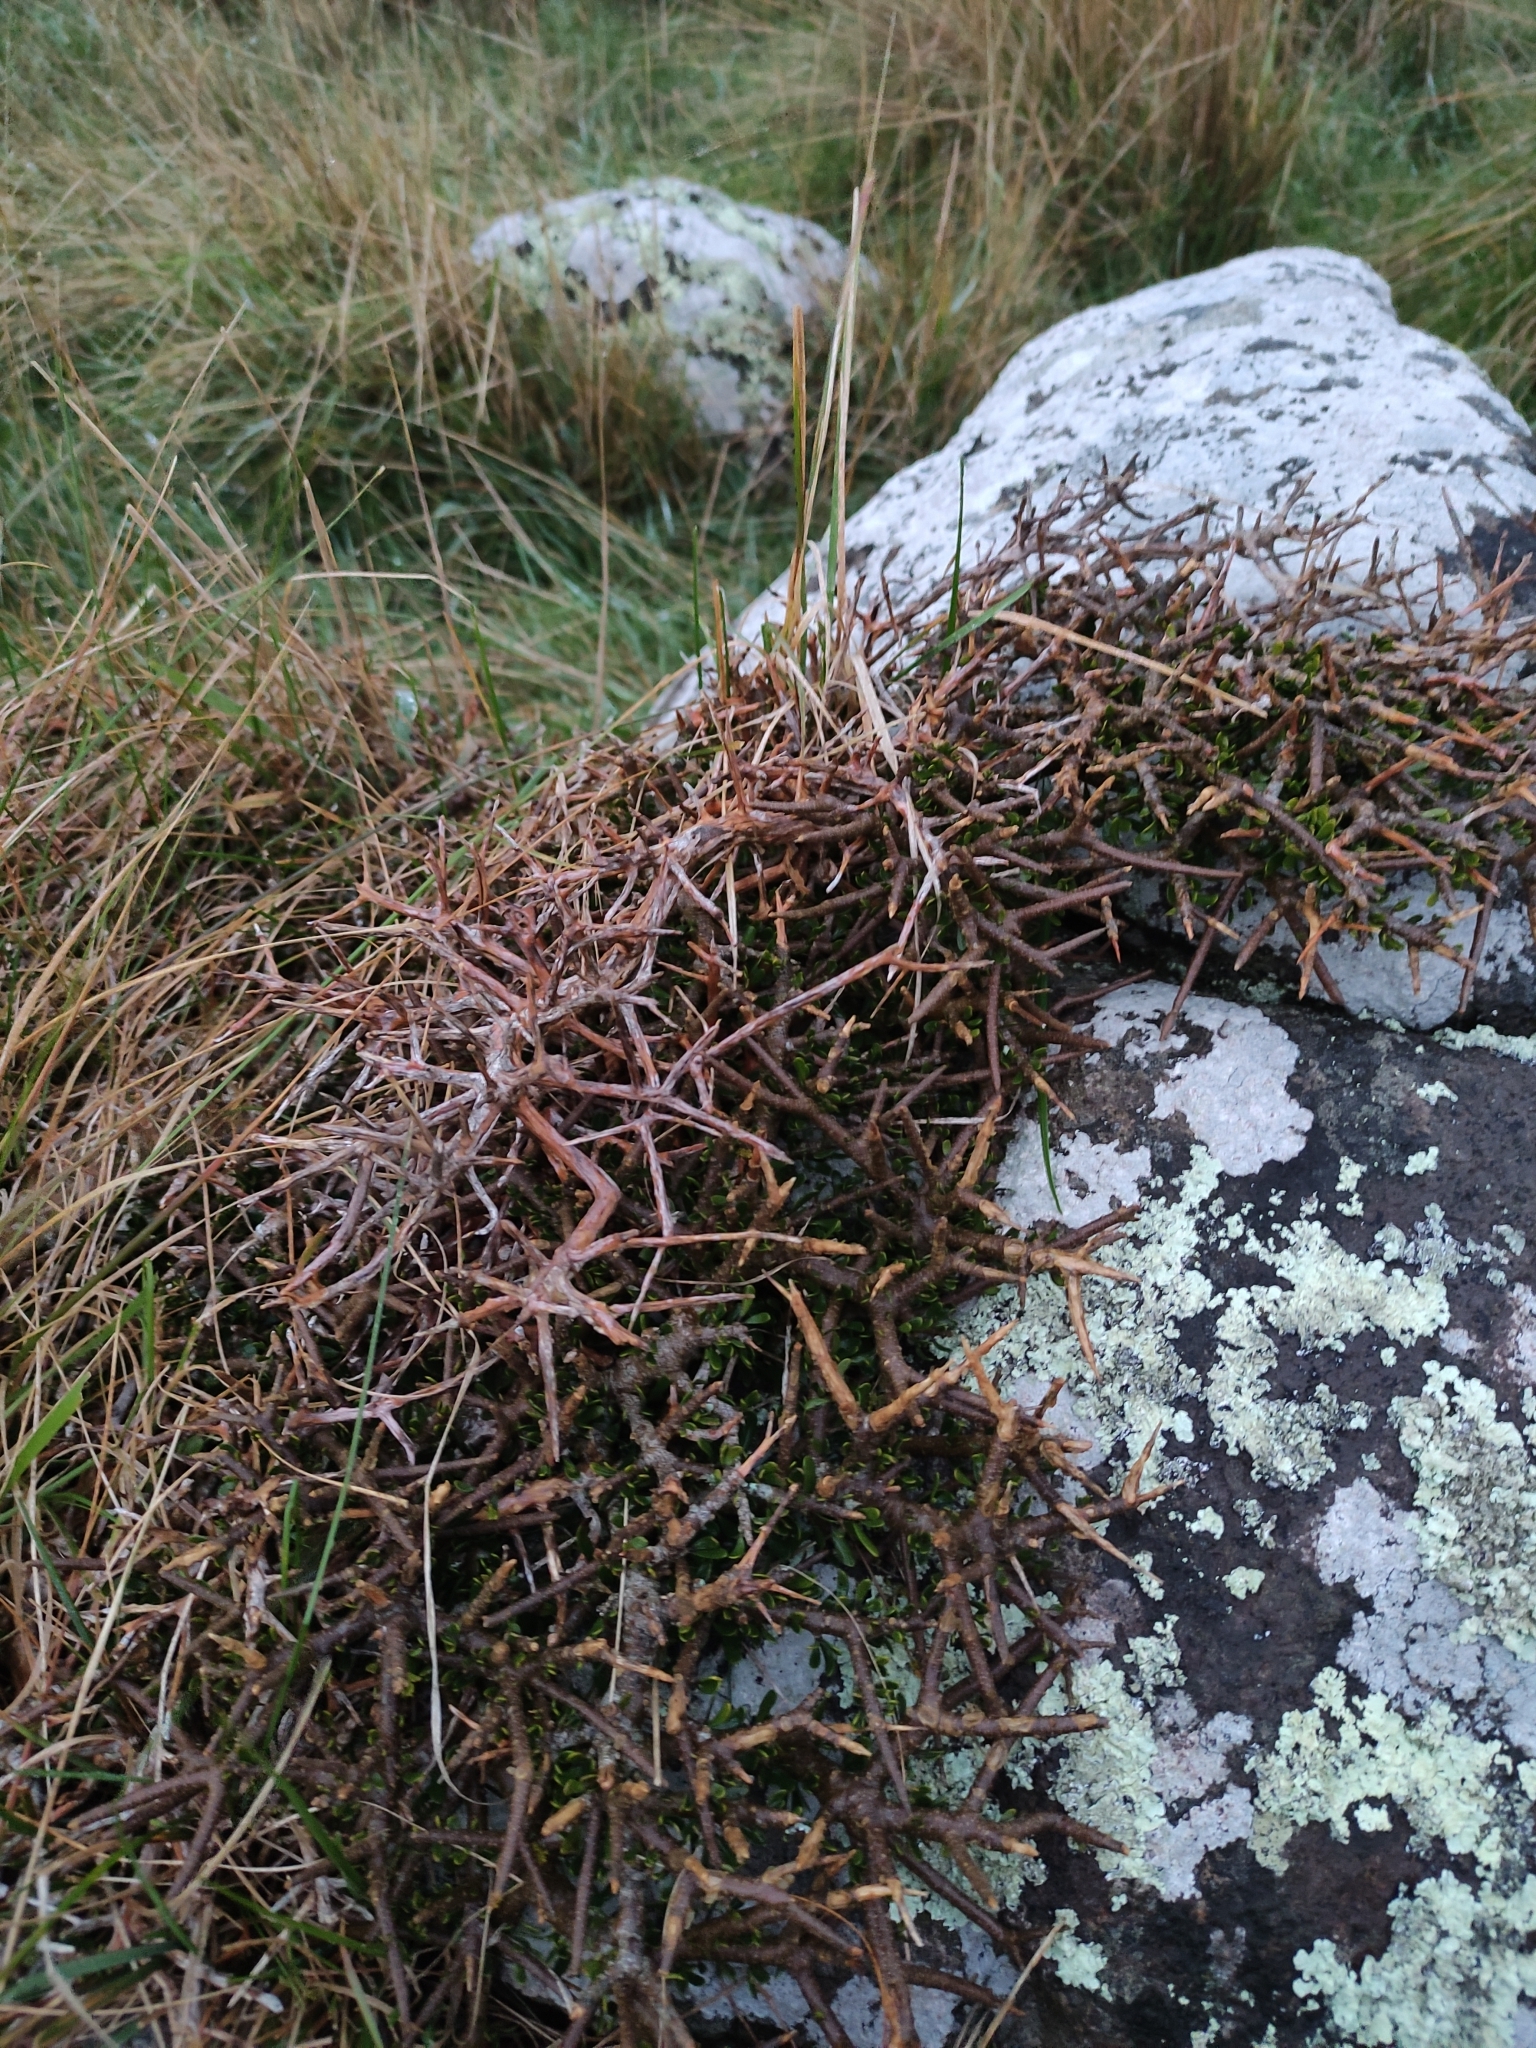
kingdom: Plantae
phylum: Tracheophyta
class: Magnoliopsida
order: Malpighiales
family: Violaceae
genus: Melicytus
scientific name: Melicytus alpinus
